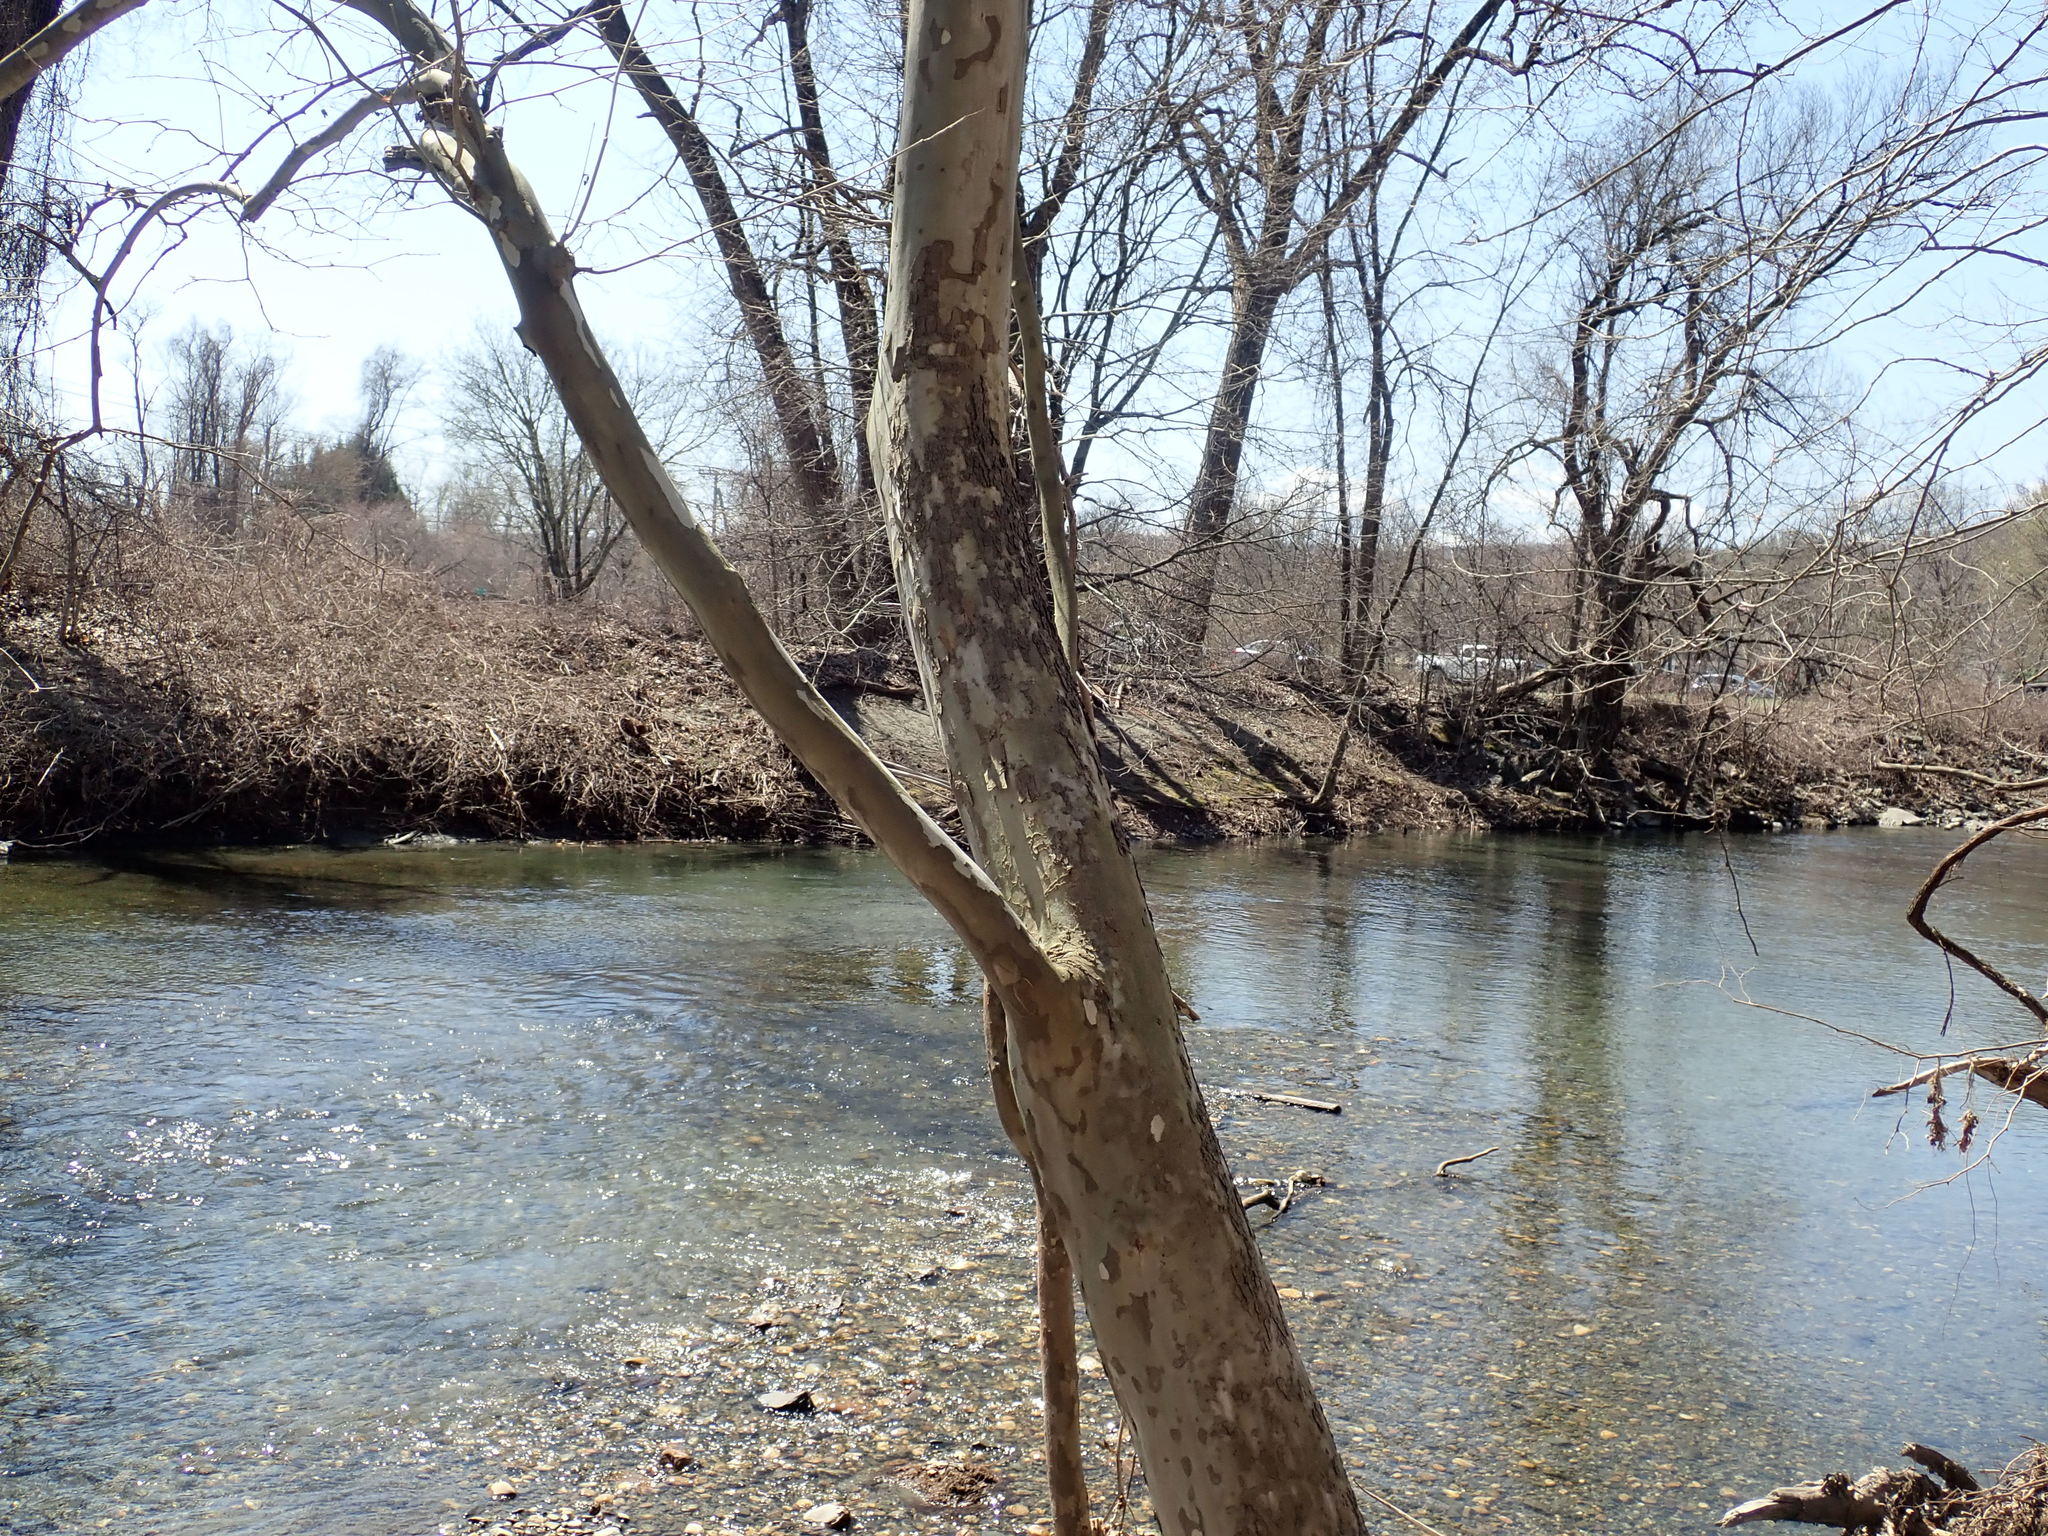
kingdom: Plantae
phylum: Tracheophyta
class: Magnoliopsida
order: Proteales
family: Platanaceae
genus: Platanus
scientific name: Platanus occidentalis
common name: American sycamore
